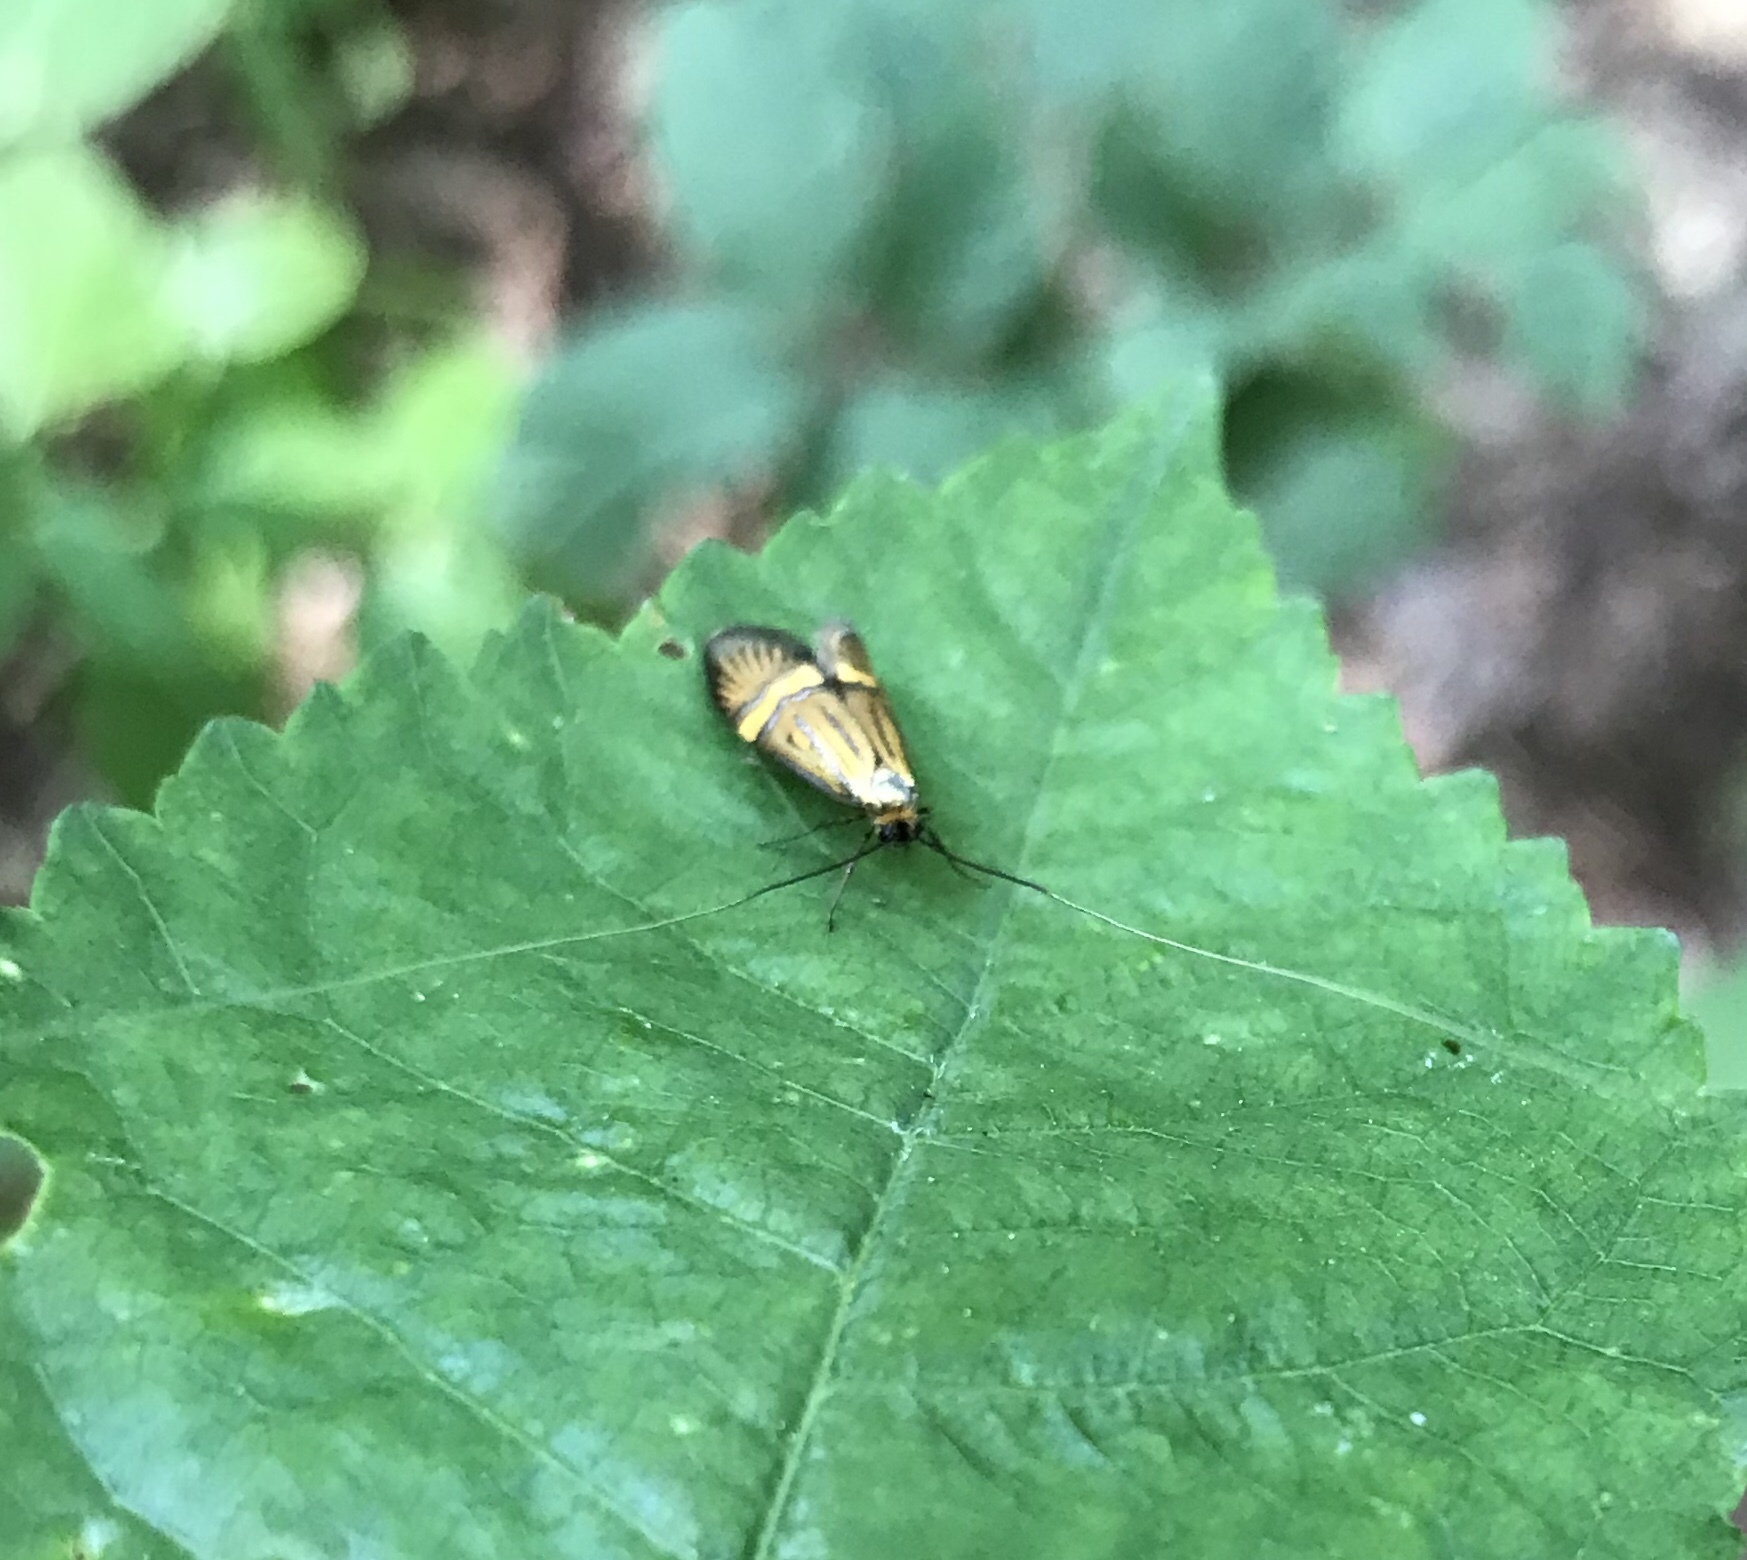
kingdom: Animalia
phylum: Arthropoda
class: Insecta
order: Lepidoptera
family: Adelidae
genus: Nemophora
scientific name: Nemophora degeerella
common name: Yellow-barred long-horn
